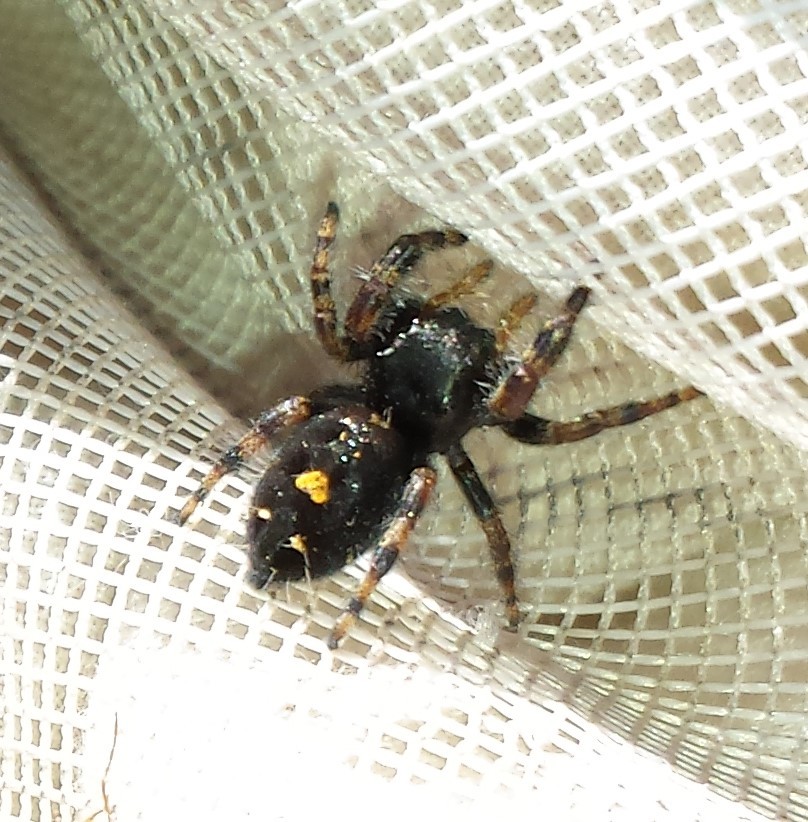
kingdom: Animalia
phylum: Arthropoda
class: Arachnida
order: Araneae
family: Salticidae
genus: Phidippus
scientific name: Phidippus audax
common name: Bold jumper
